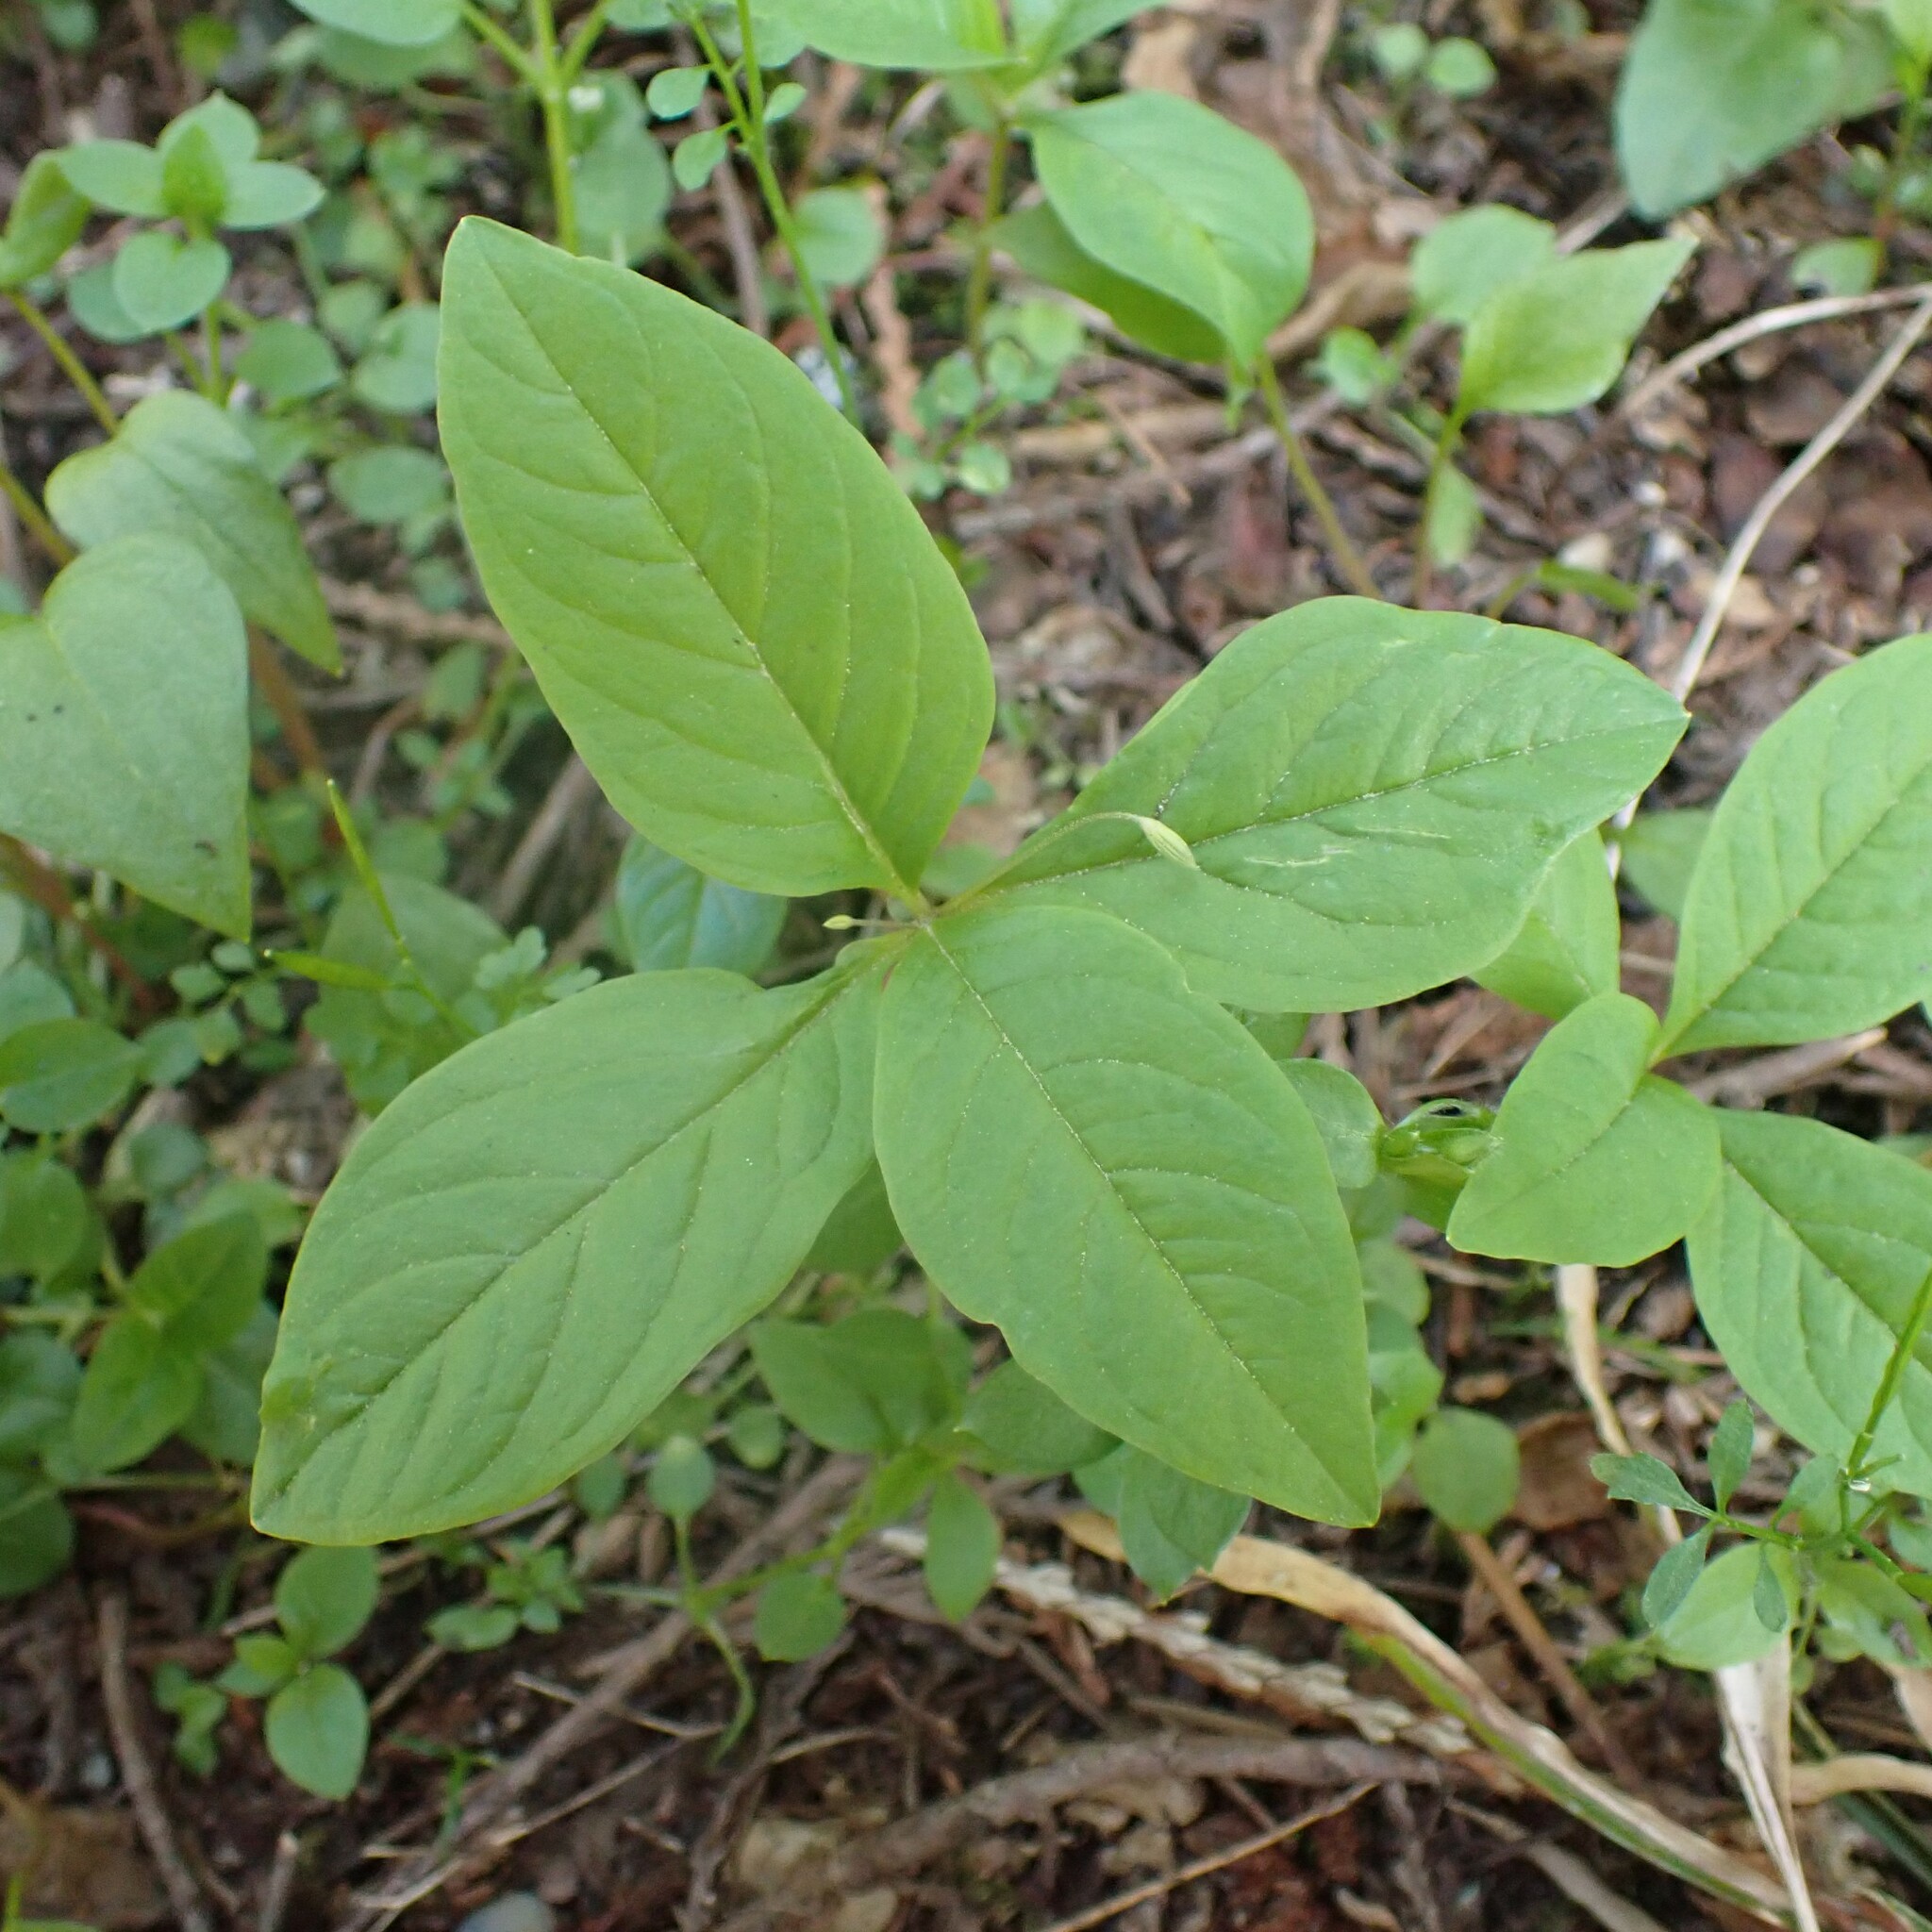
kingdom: Plantae
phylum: Tracheophyta
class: Magnoliopsida
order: Ericales
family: Primulaceae
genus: Lysimachia
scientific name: Lysimachia latifolia
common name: Pacific starflower
